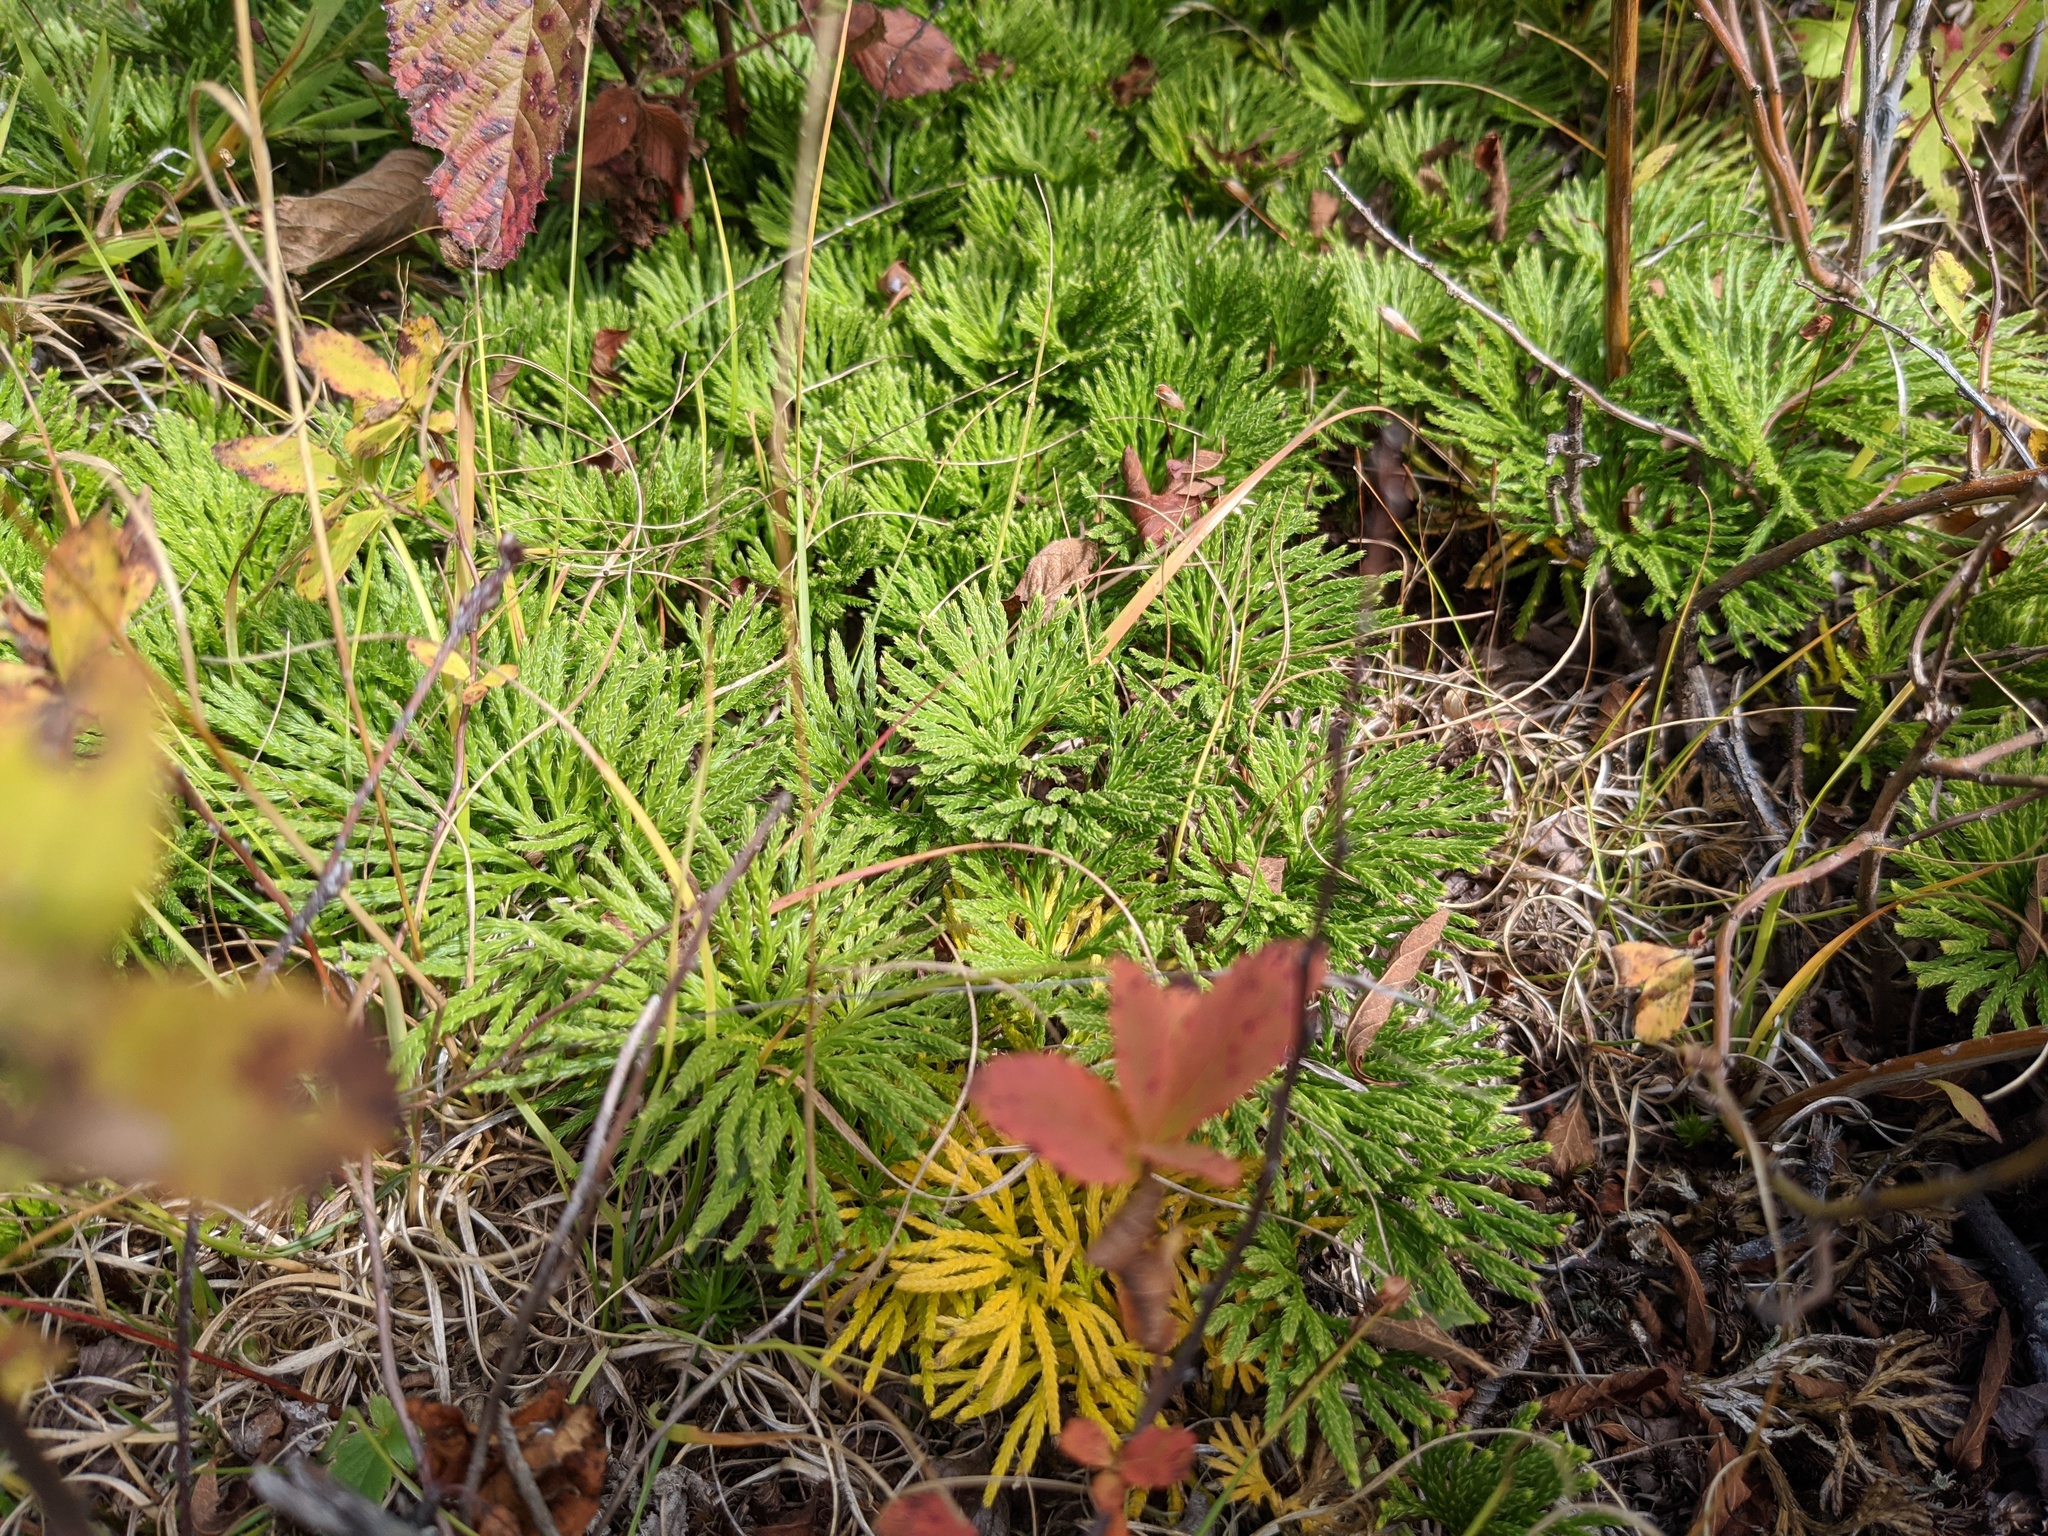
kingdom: Plantae
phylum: Tracheophyta
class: Lycopodiopsida
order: Lycopodiales
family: Lycopodiaceae
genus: Diphasiastrum
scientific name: Diphasiastrum tristachyum
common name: Blue ground-cedar
